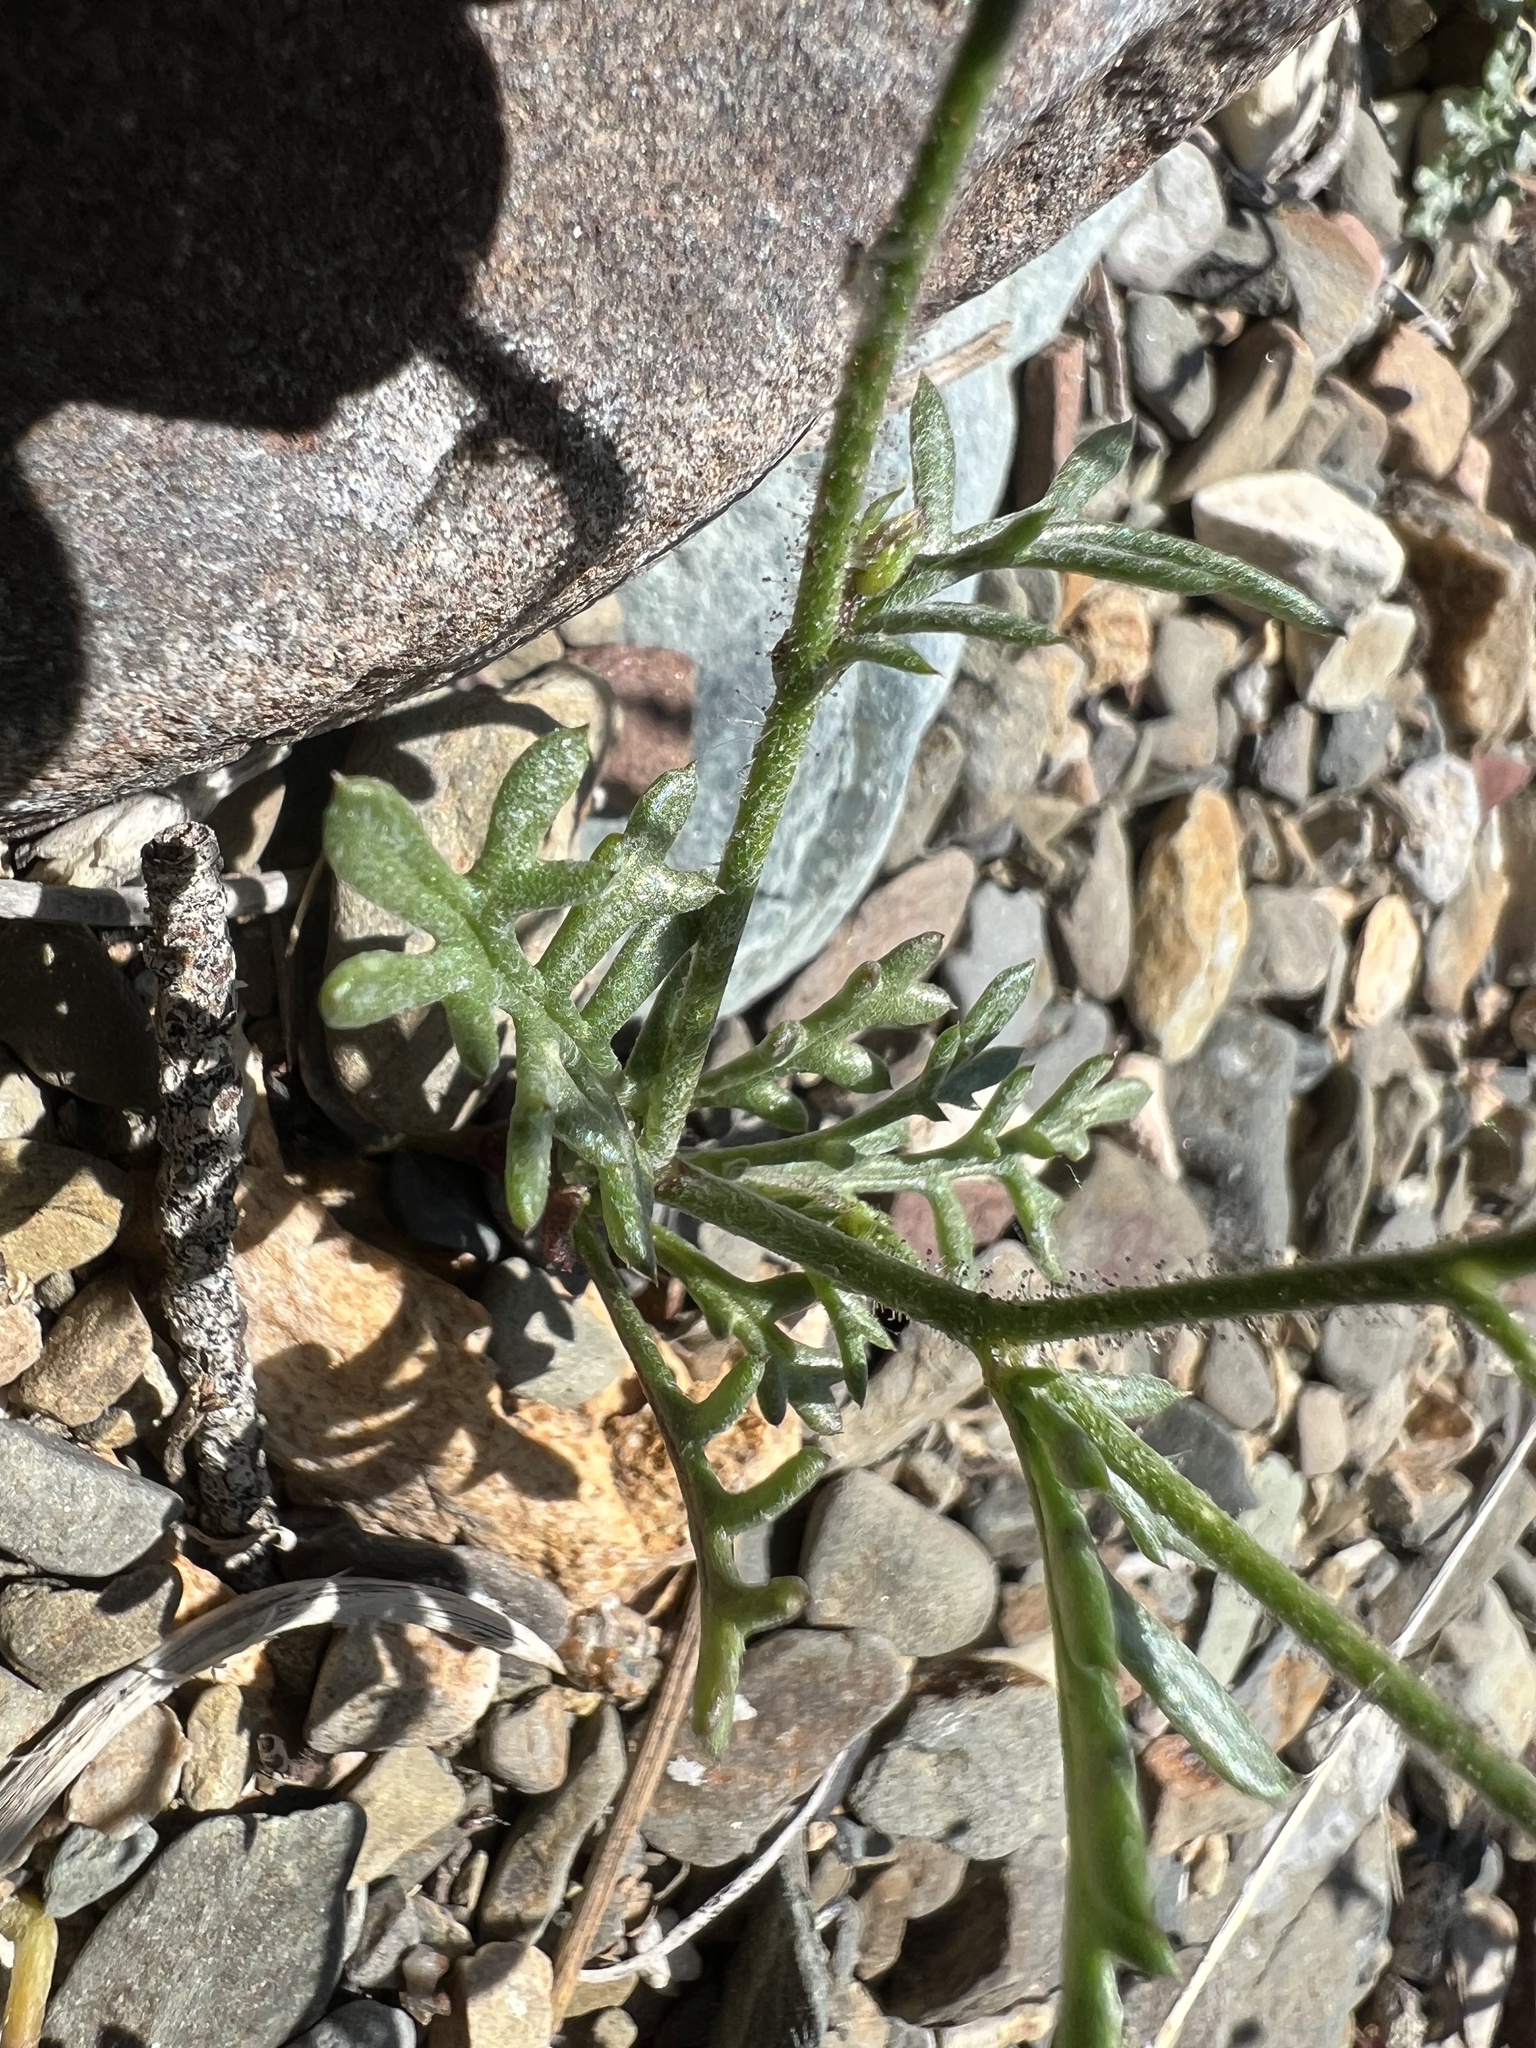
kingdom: Plantae
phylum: Tracheophyta
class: Magnoliopsida
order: Ericales
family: Polemoniaceae
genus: Gilia
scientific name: Gilia clokeyi
